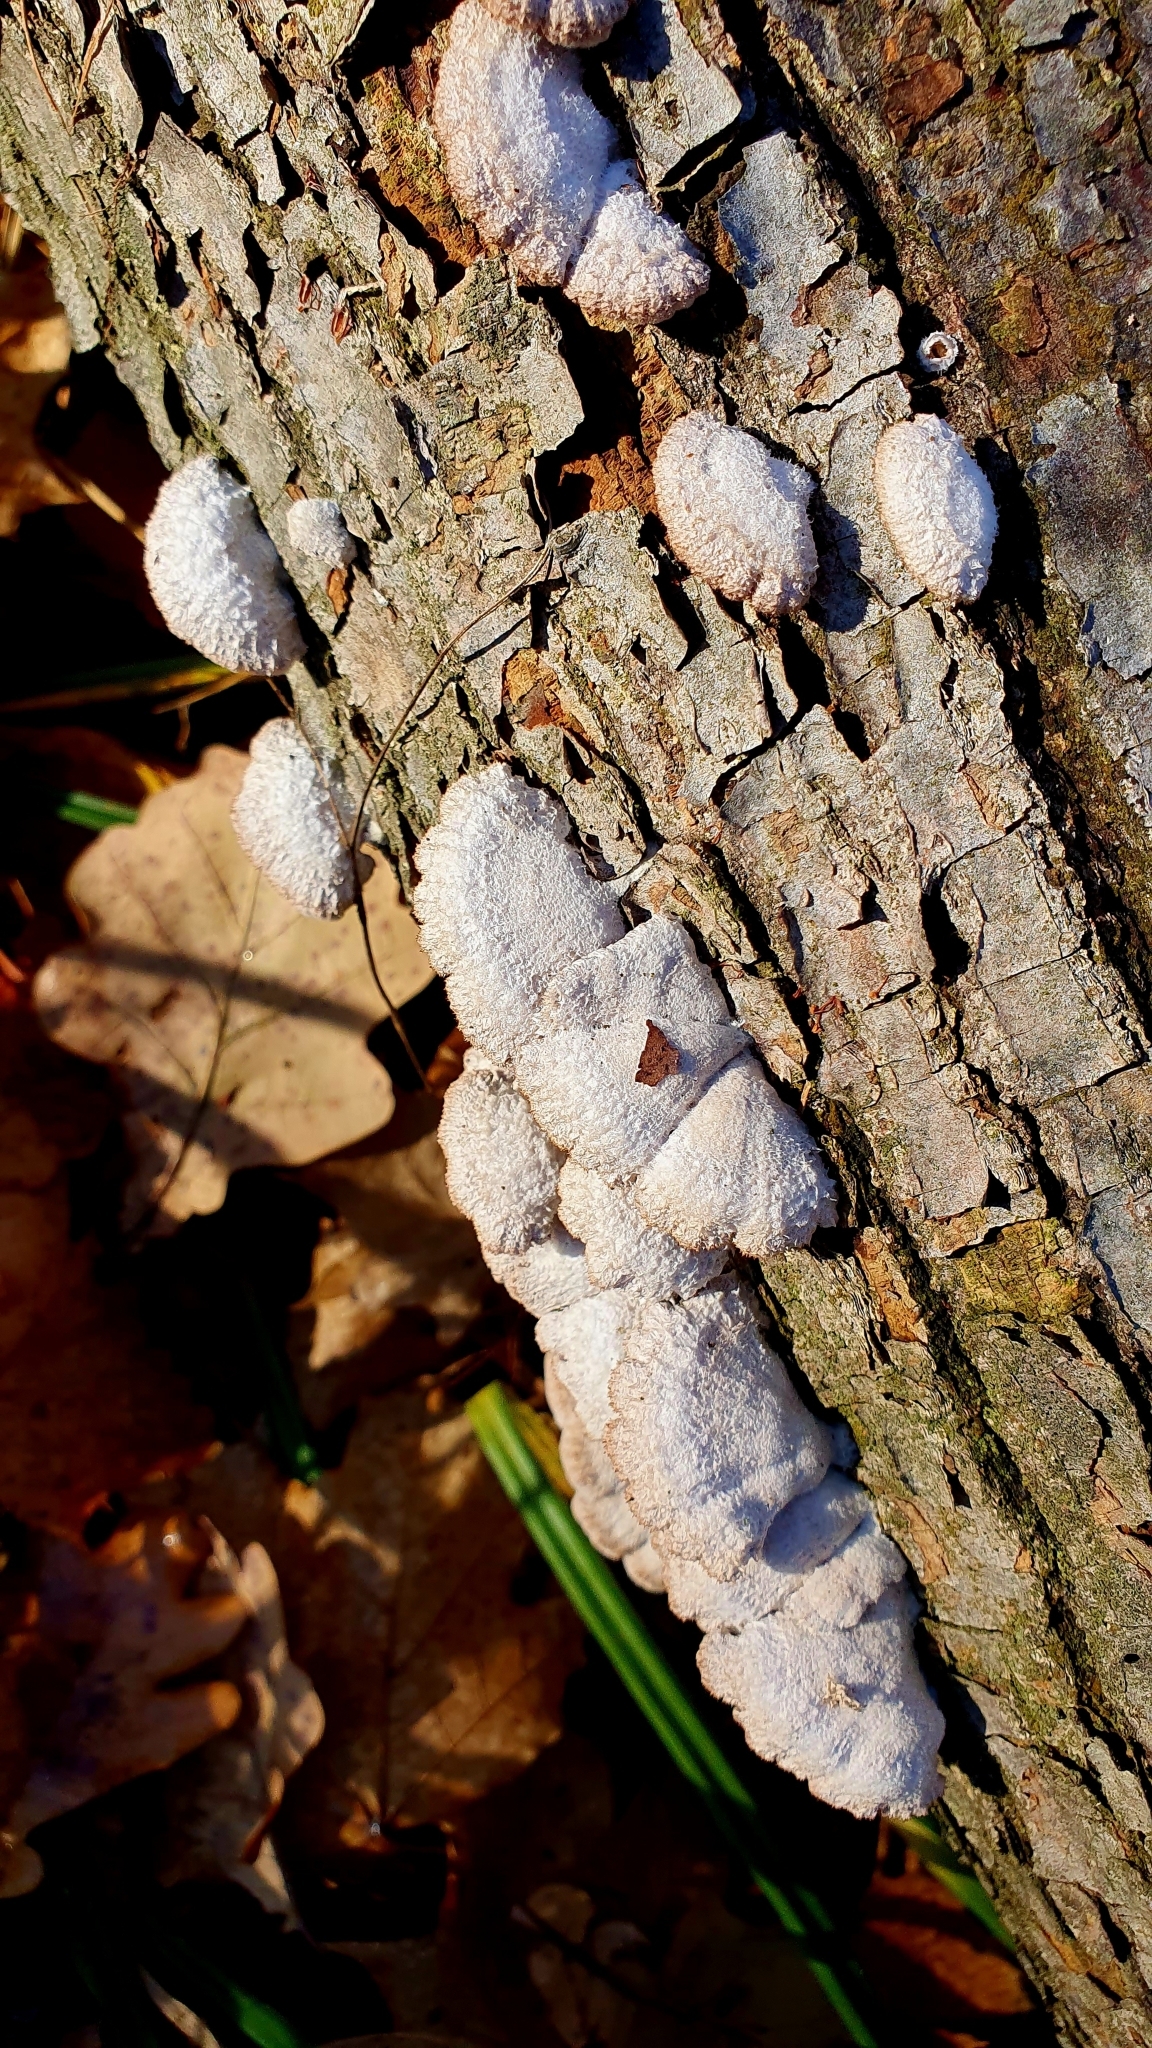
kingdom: Fungi
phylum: Basidiomycota
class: Agaricomycetes
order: Agaricales
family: Schizophyllaceae
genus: Schizophyllum
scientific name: Schizophyllum commune
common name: Common porecrust
